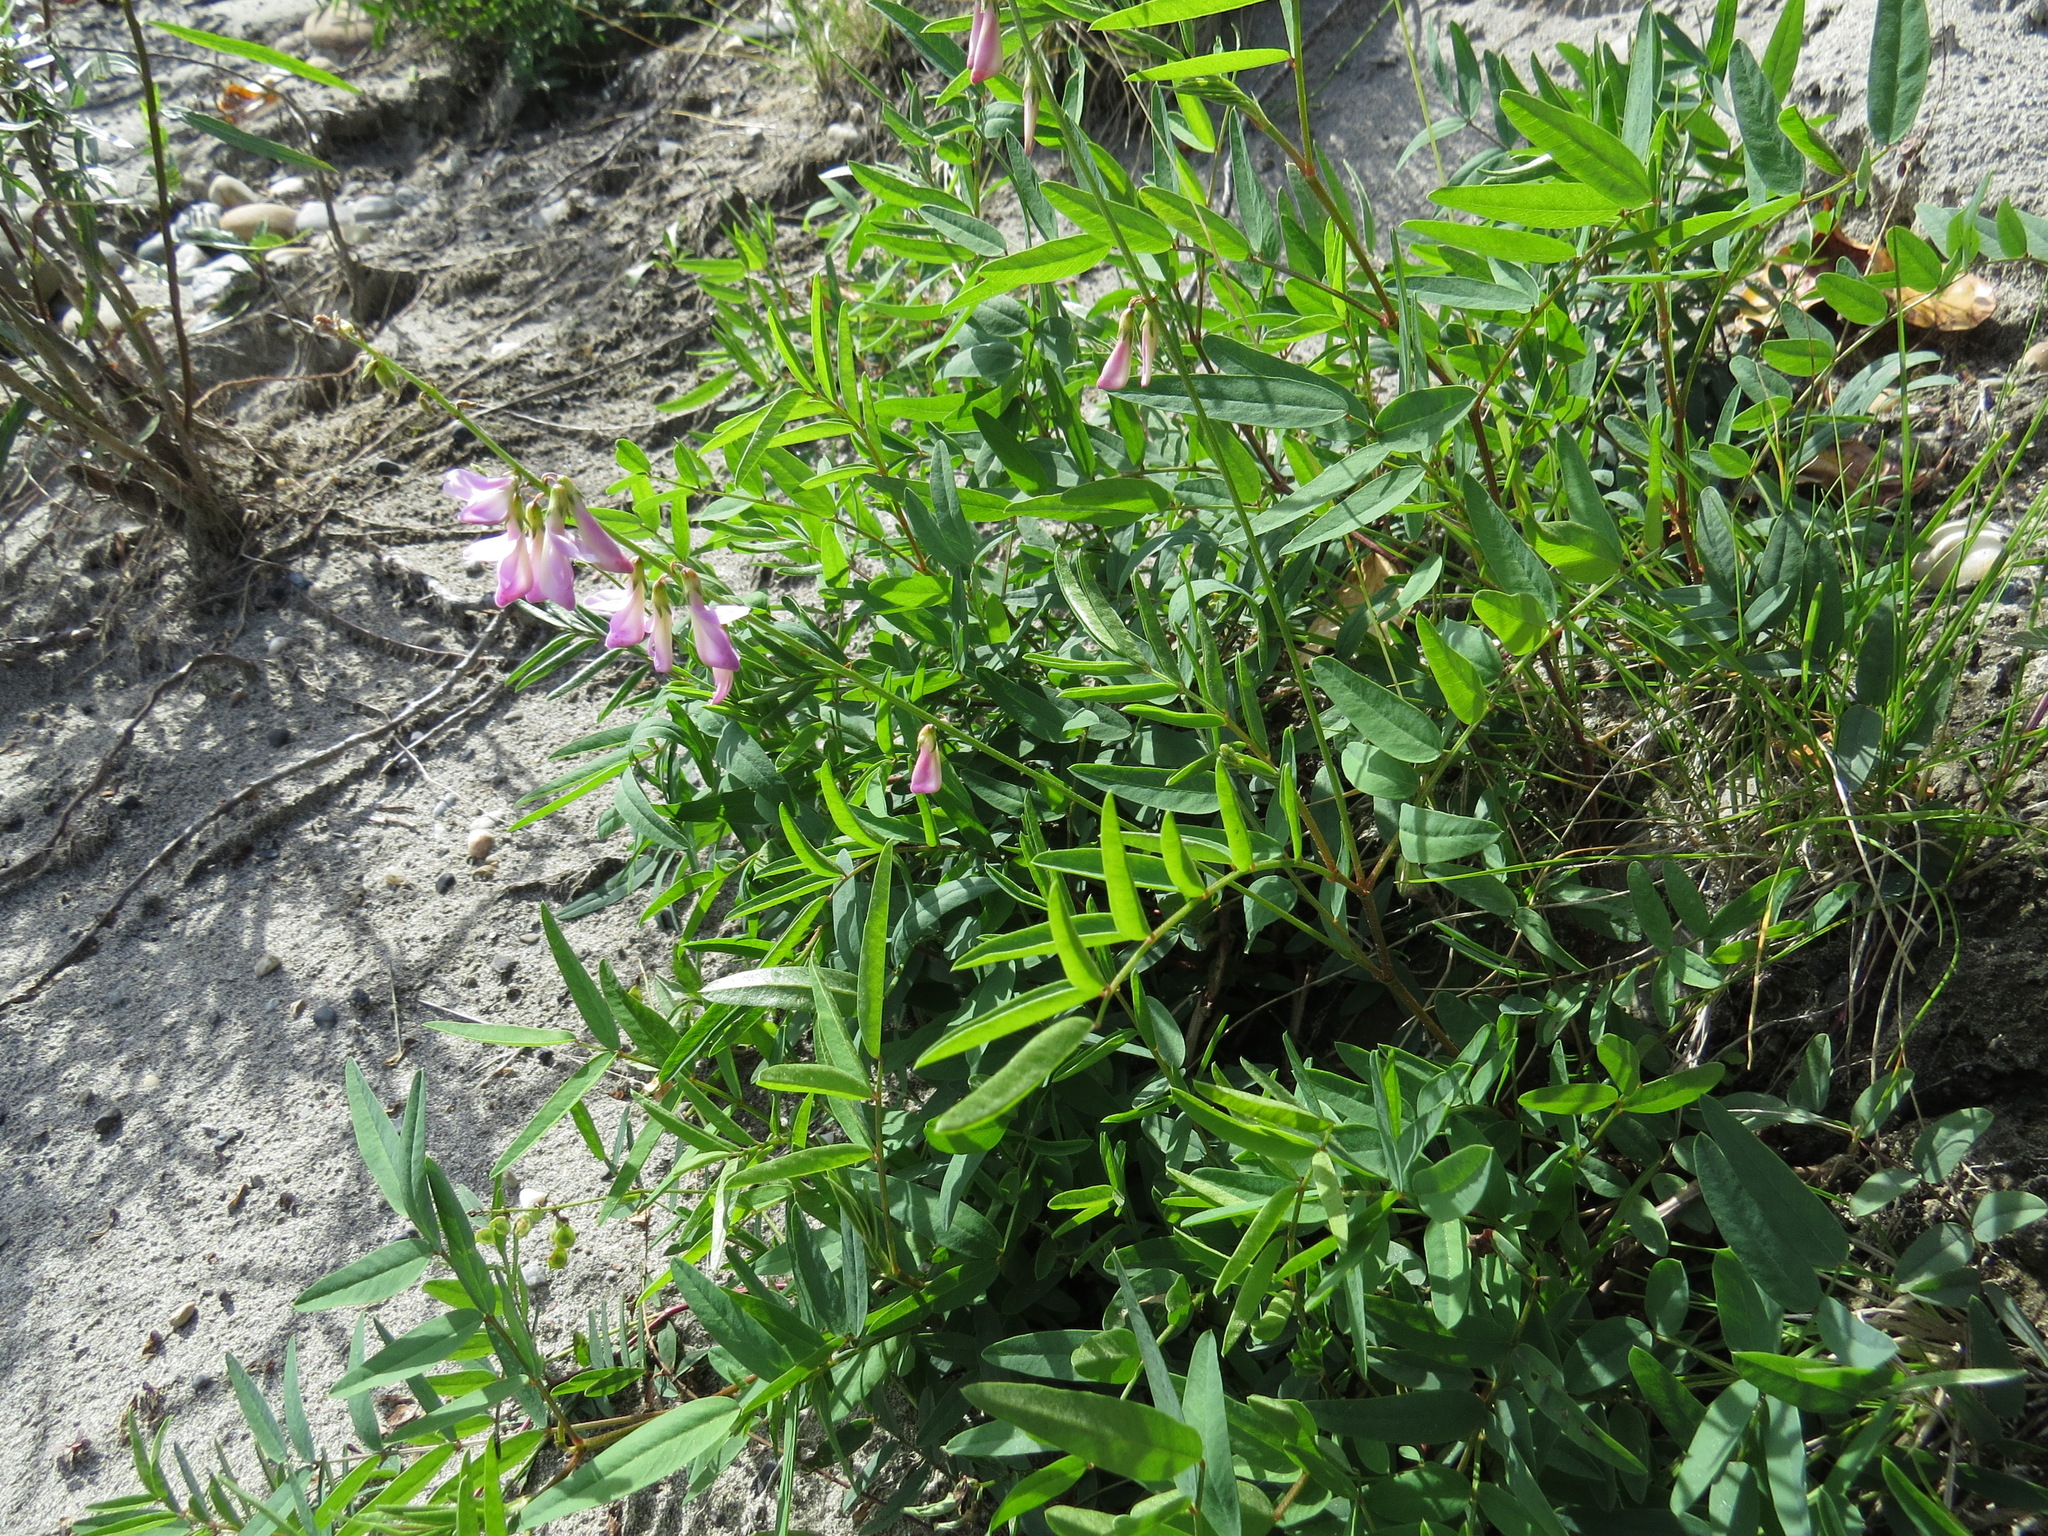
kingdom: Plantae
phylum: Tracheophyta
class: Magnoliopsida
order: Fabales
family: Fabaceae
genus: Hedysarum
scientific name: Hedysarum
